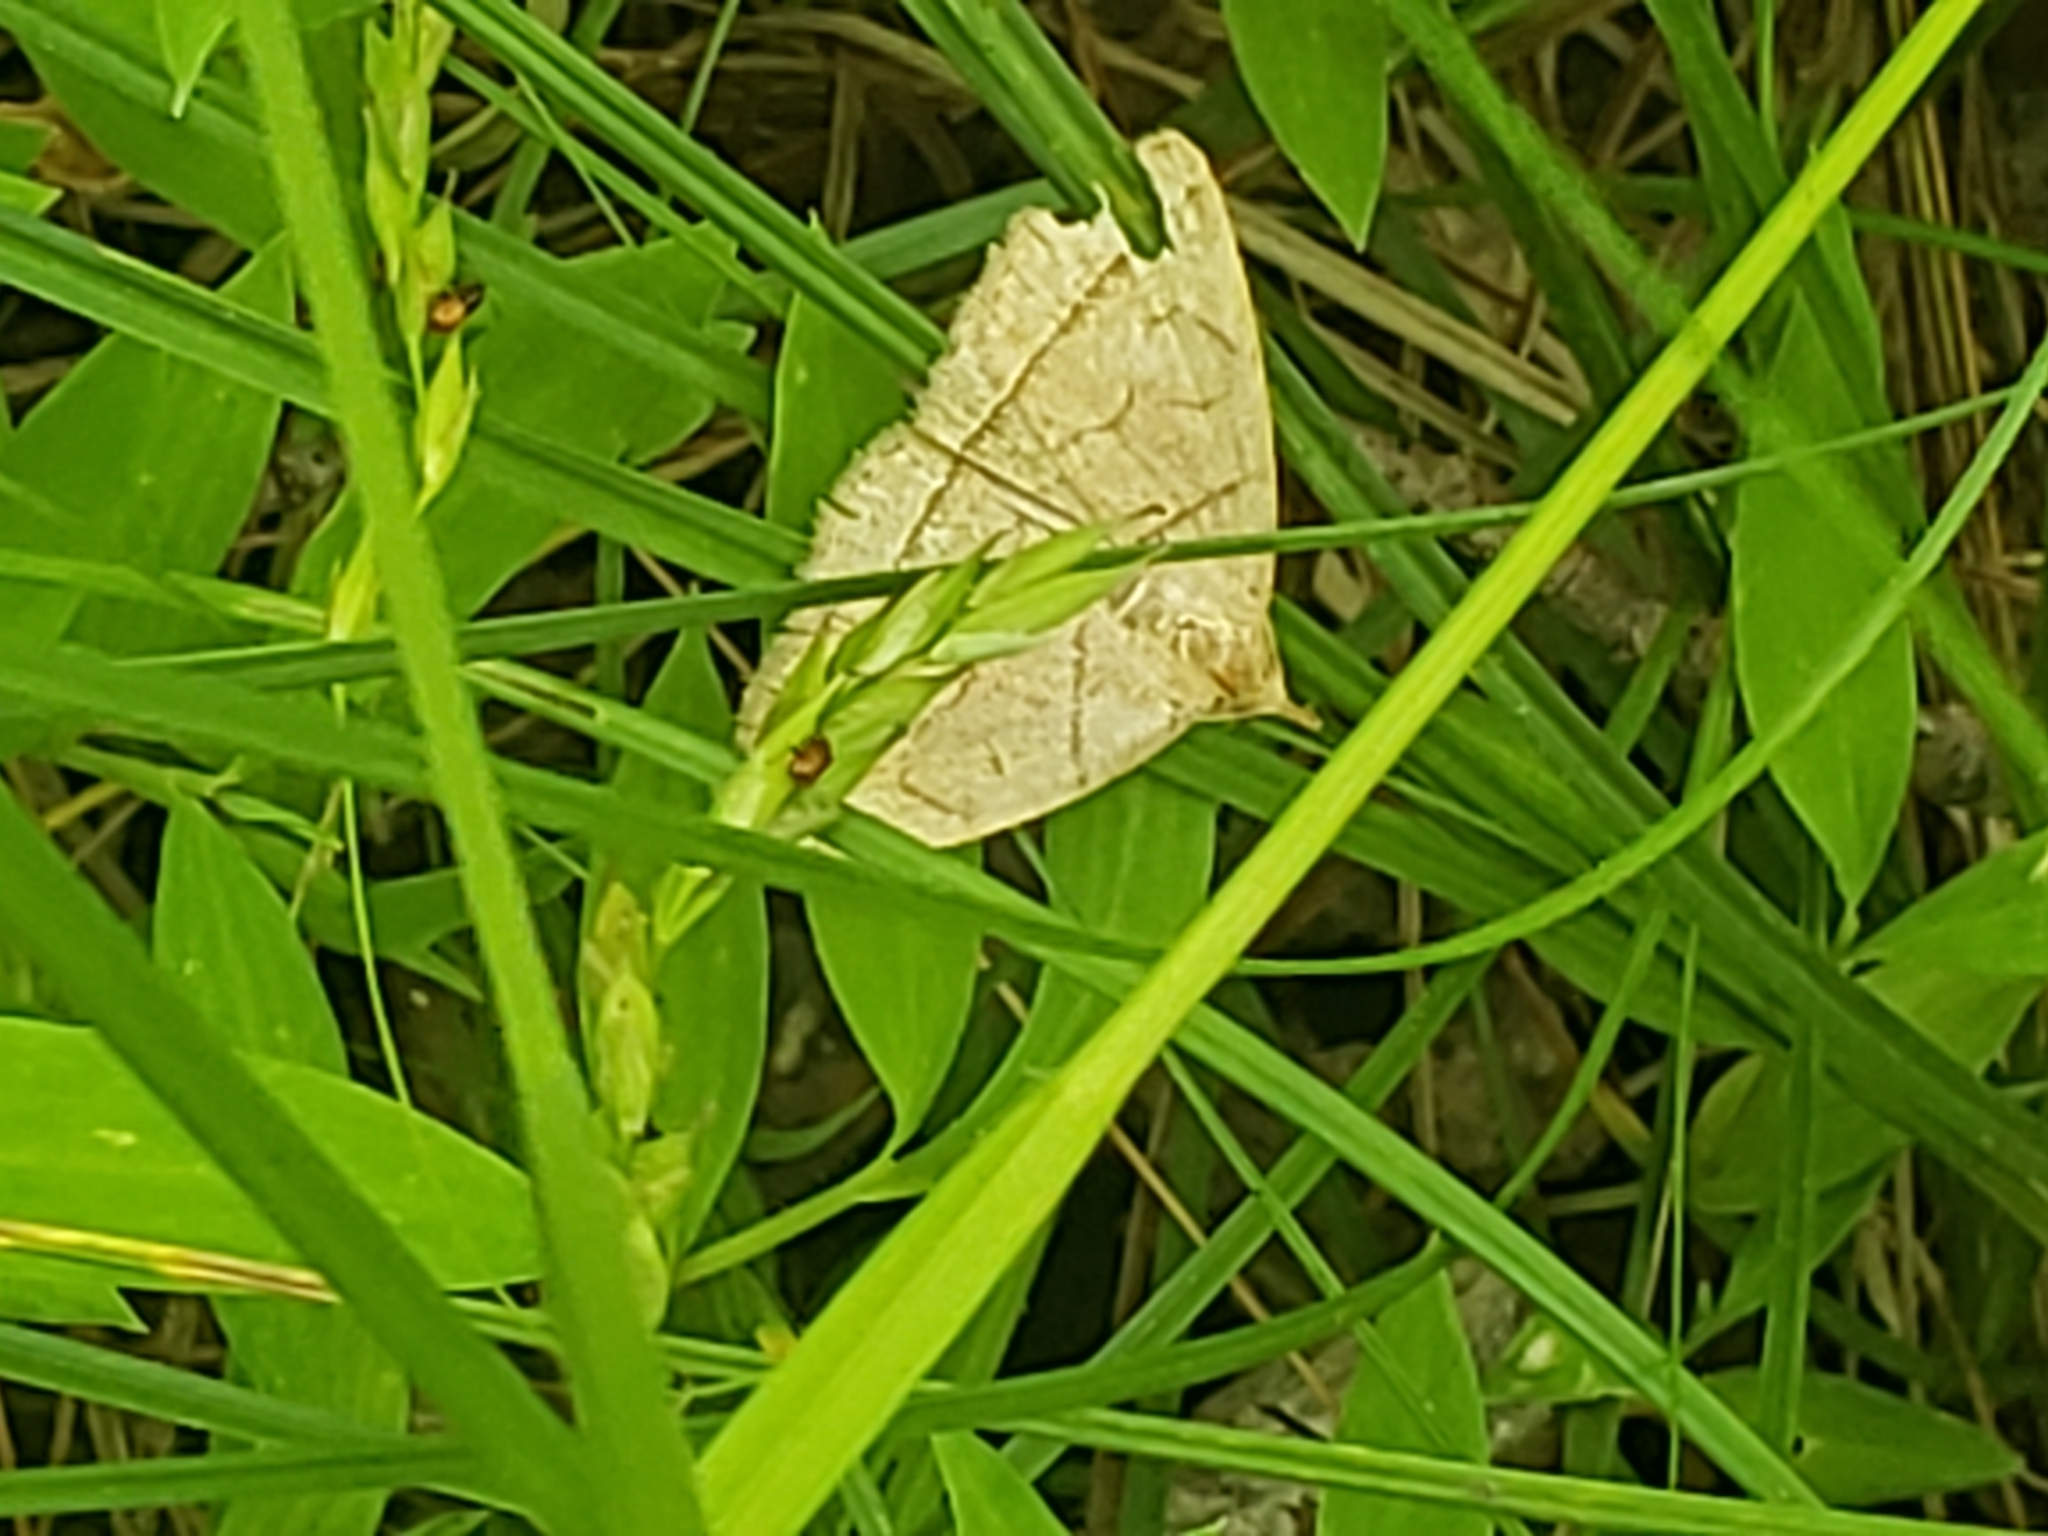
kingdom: Animalia
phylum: Arthropoda
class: Insecta
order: Lepidoptera
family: Erebidae
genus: Zanclognatha
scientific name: Zanclognatha cruralis
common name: Early fan-foot
